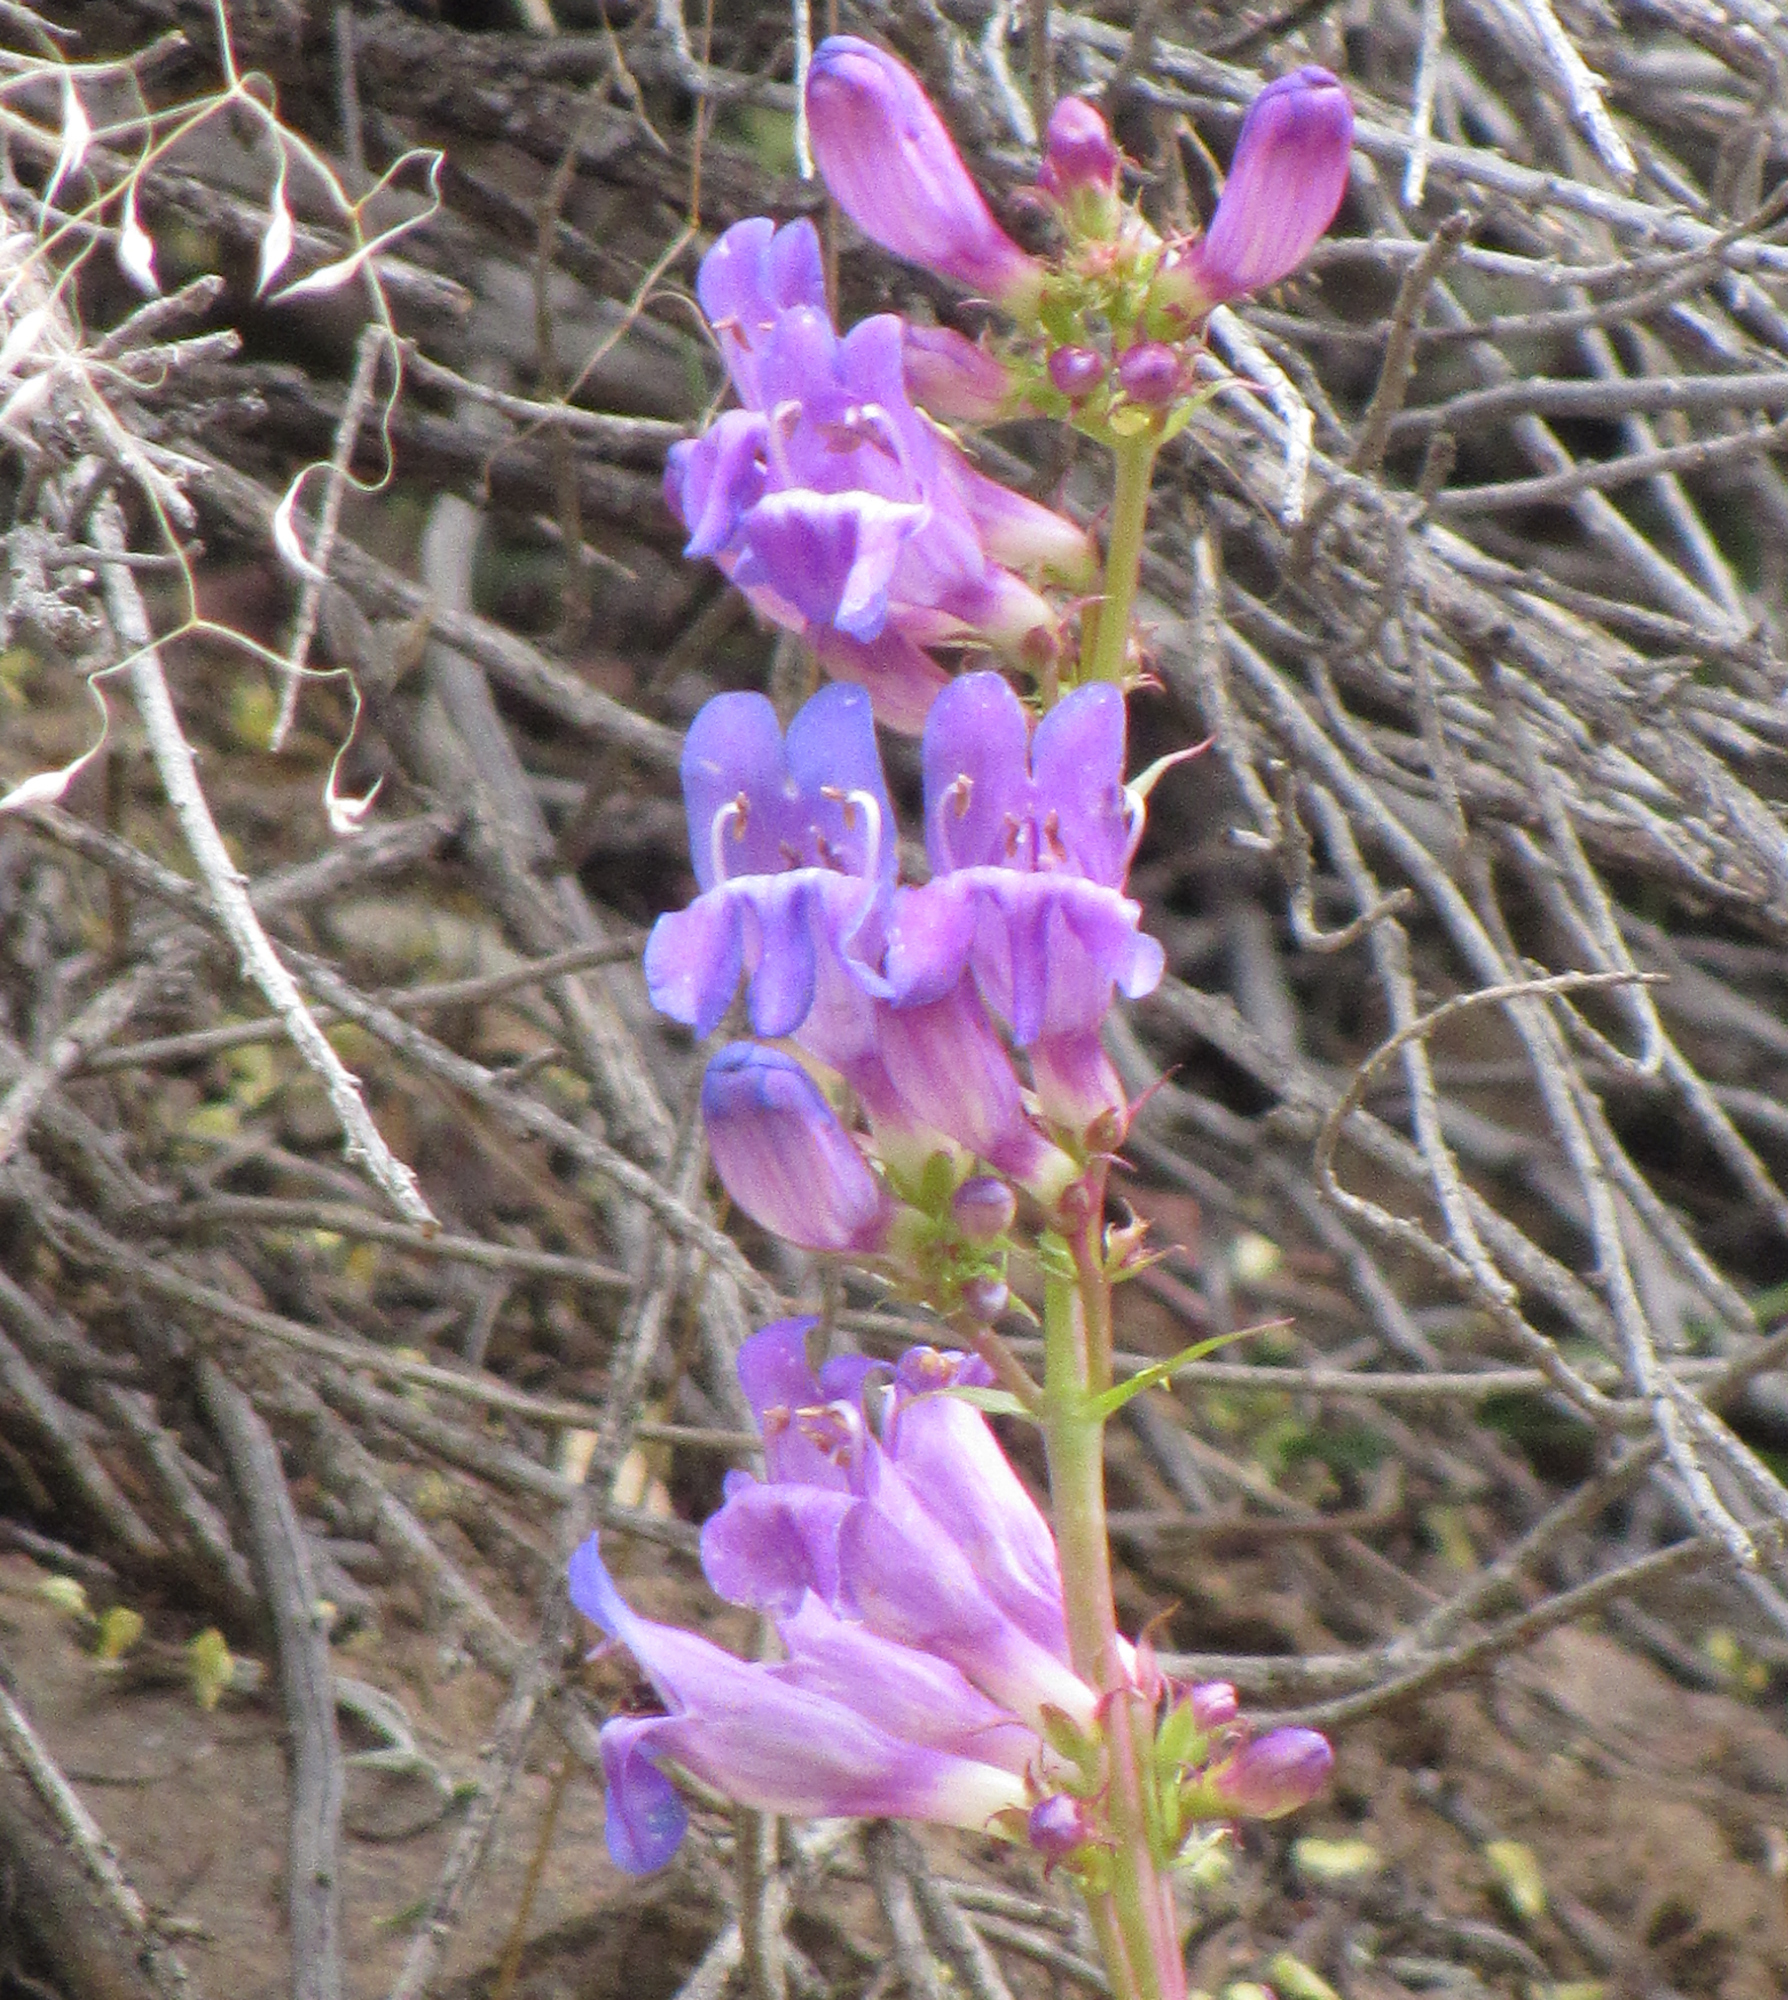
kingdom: Plantae
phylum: Tracheophyta
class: Magnoliopsida
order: Lamiales
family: Plantaginaceae
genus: Penstemon
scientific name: Penstemon payettensis
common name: Payette penstemon
